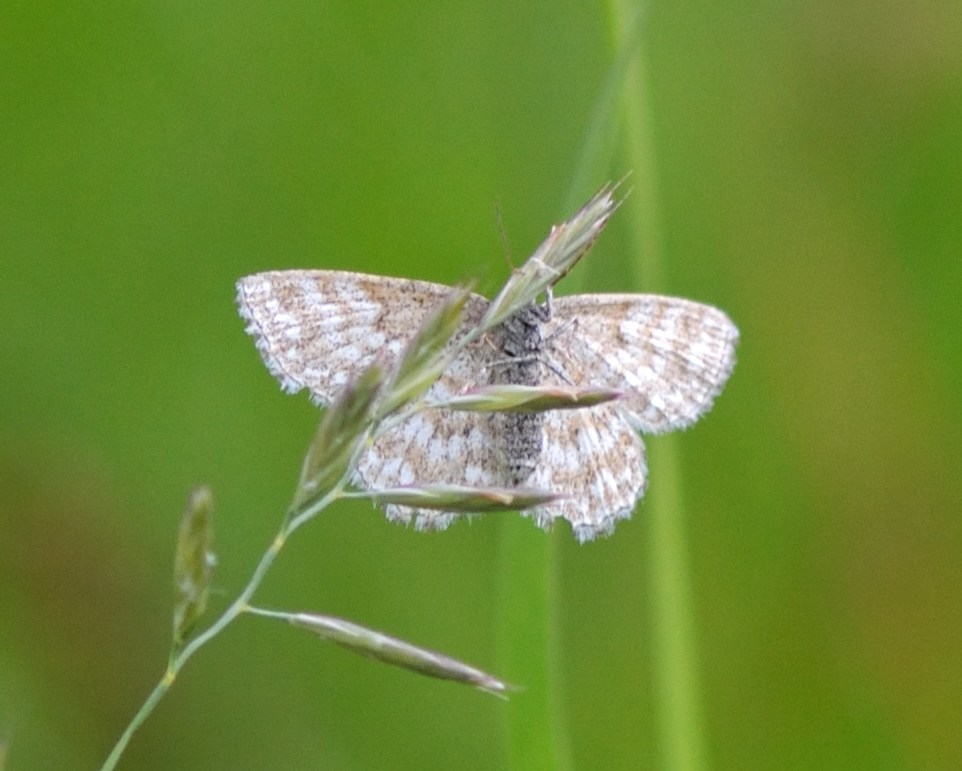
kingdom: Animalia
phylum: Arthropoda
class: Insecta
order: Lepidoptera
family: Geometridae
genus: Scopula
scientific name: Scopula immorata
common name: Lewes wave
